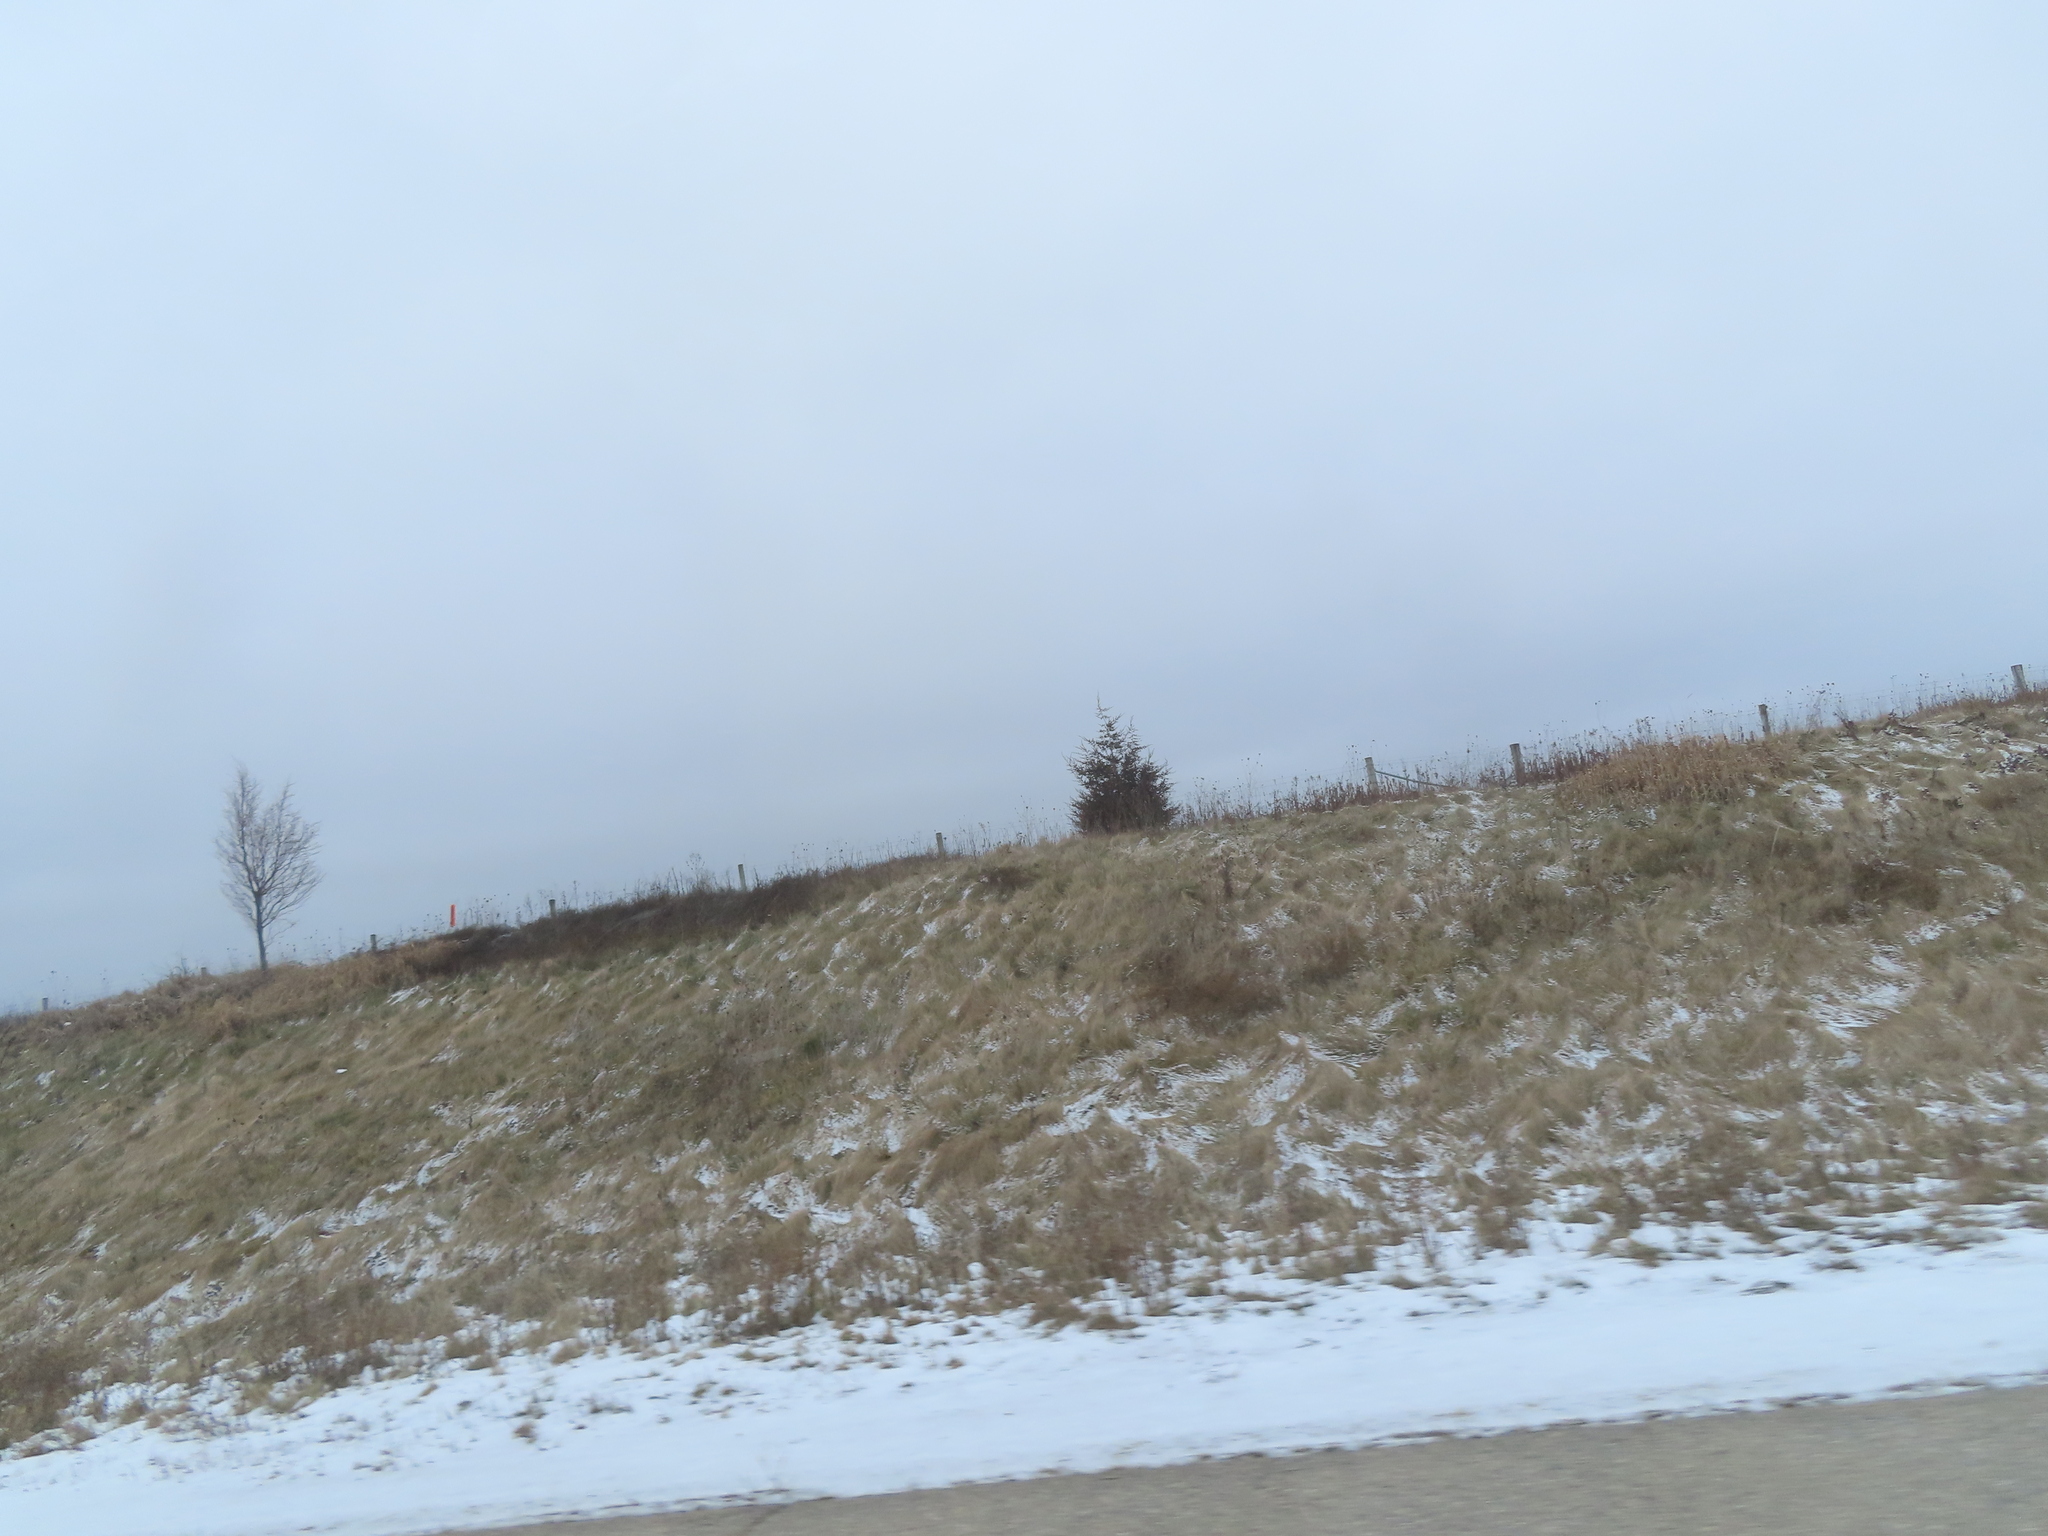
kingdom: Plantae
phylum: Tracheophyta
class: Pinopsida
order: Pinales
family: Cupressaceae
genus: Juniperus
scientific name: Juniperus virginiana
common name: Red juniper
